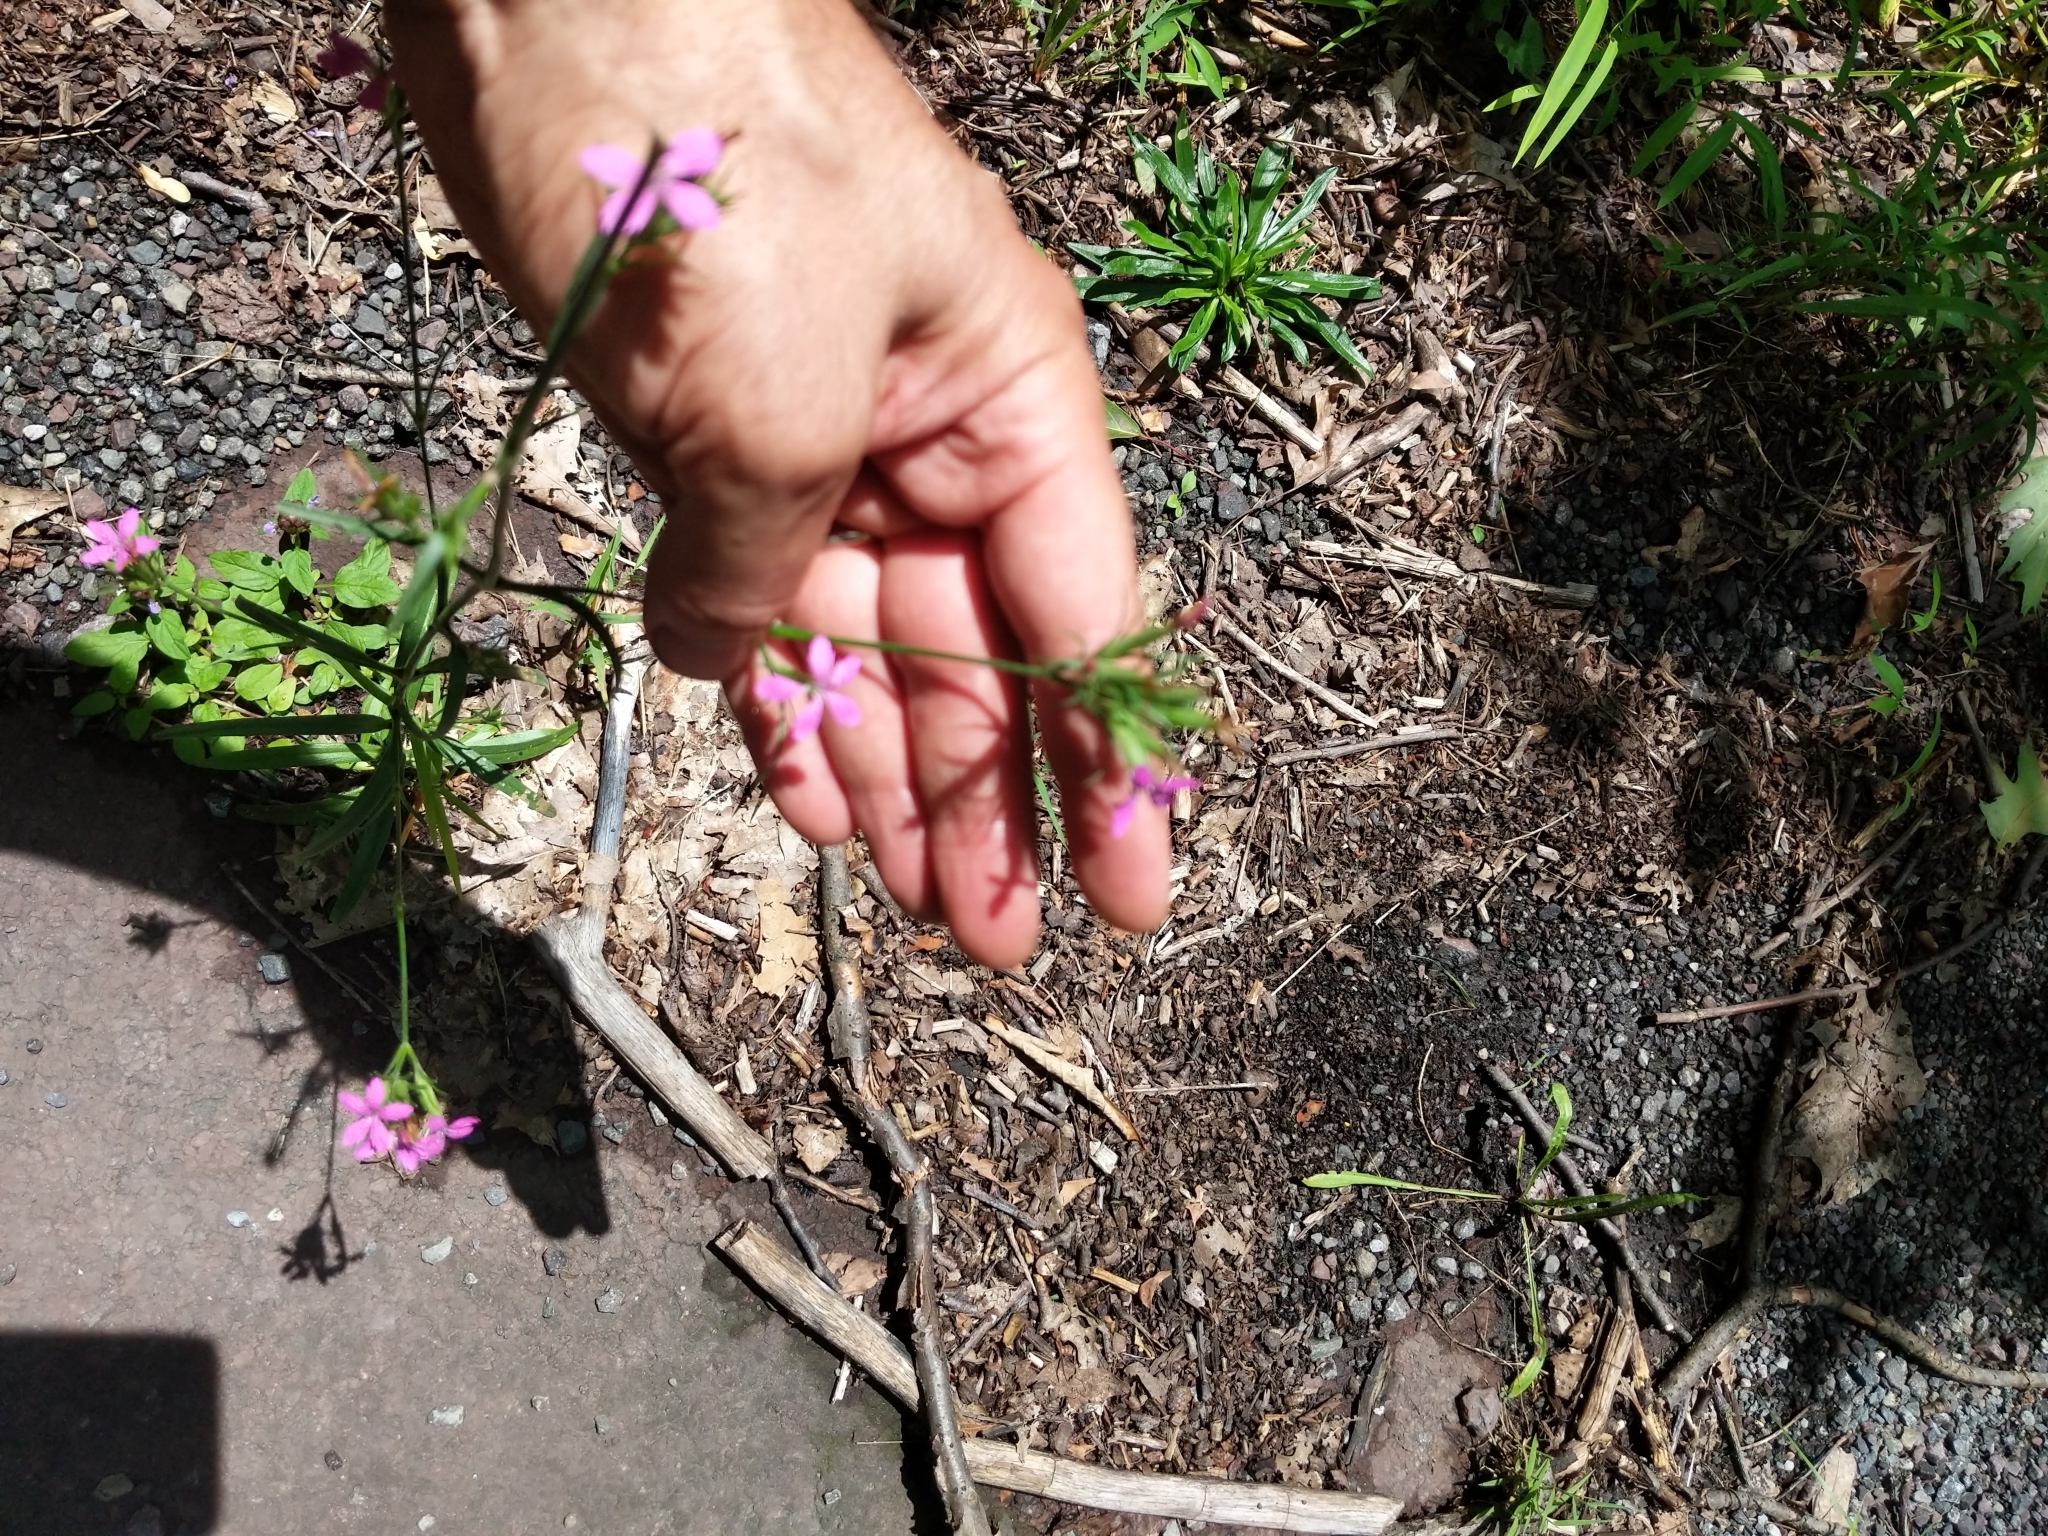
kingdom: Plantae
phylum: Tracheophyta
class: Magnoliopsida
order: Caryophyllales
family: Caryophyllaceae
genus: Dianthus
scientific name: Dianthus armeria
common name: Deptford pink
